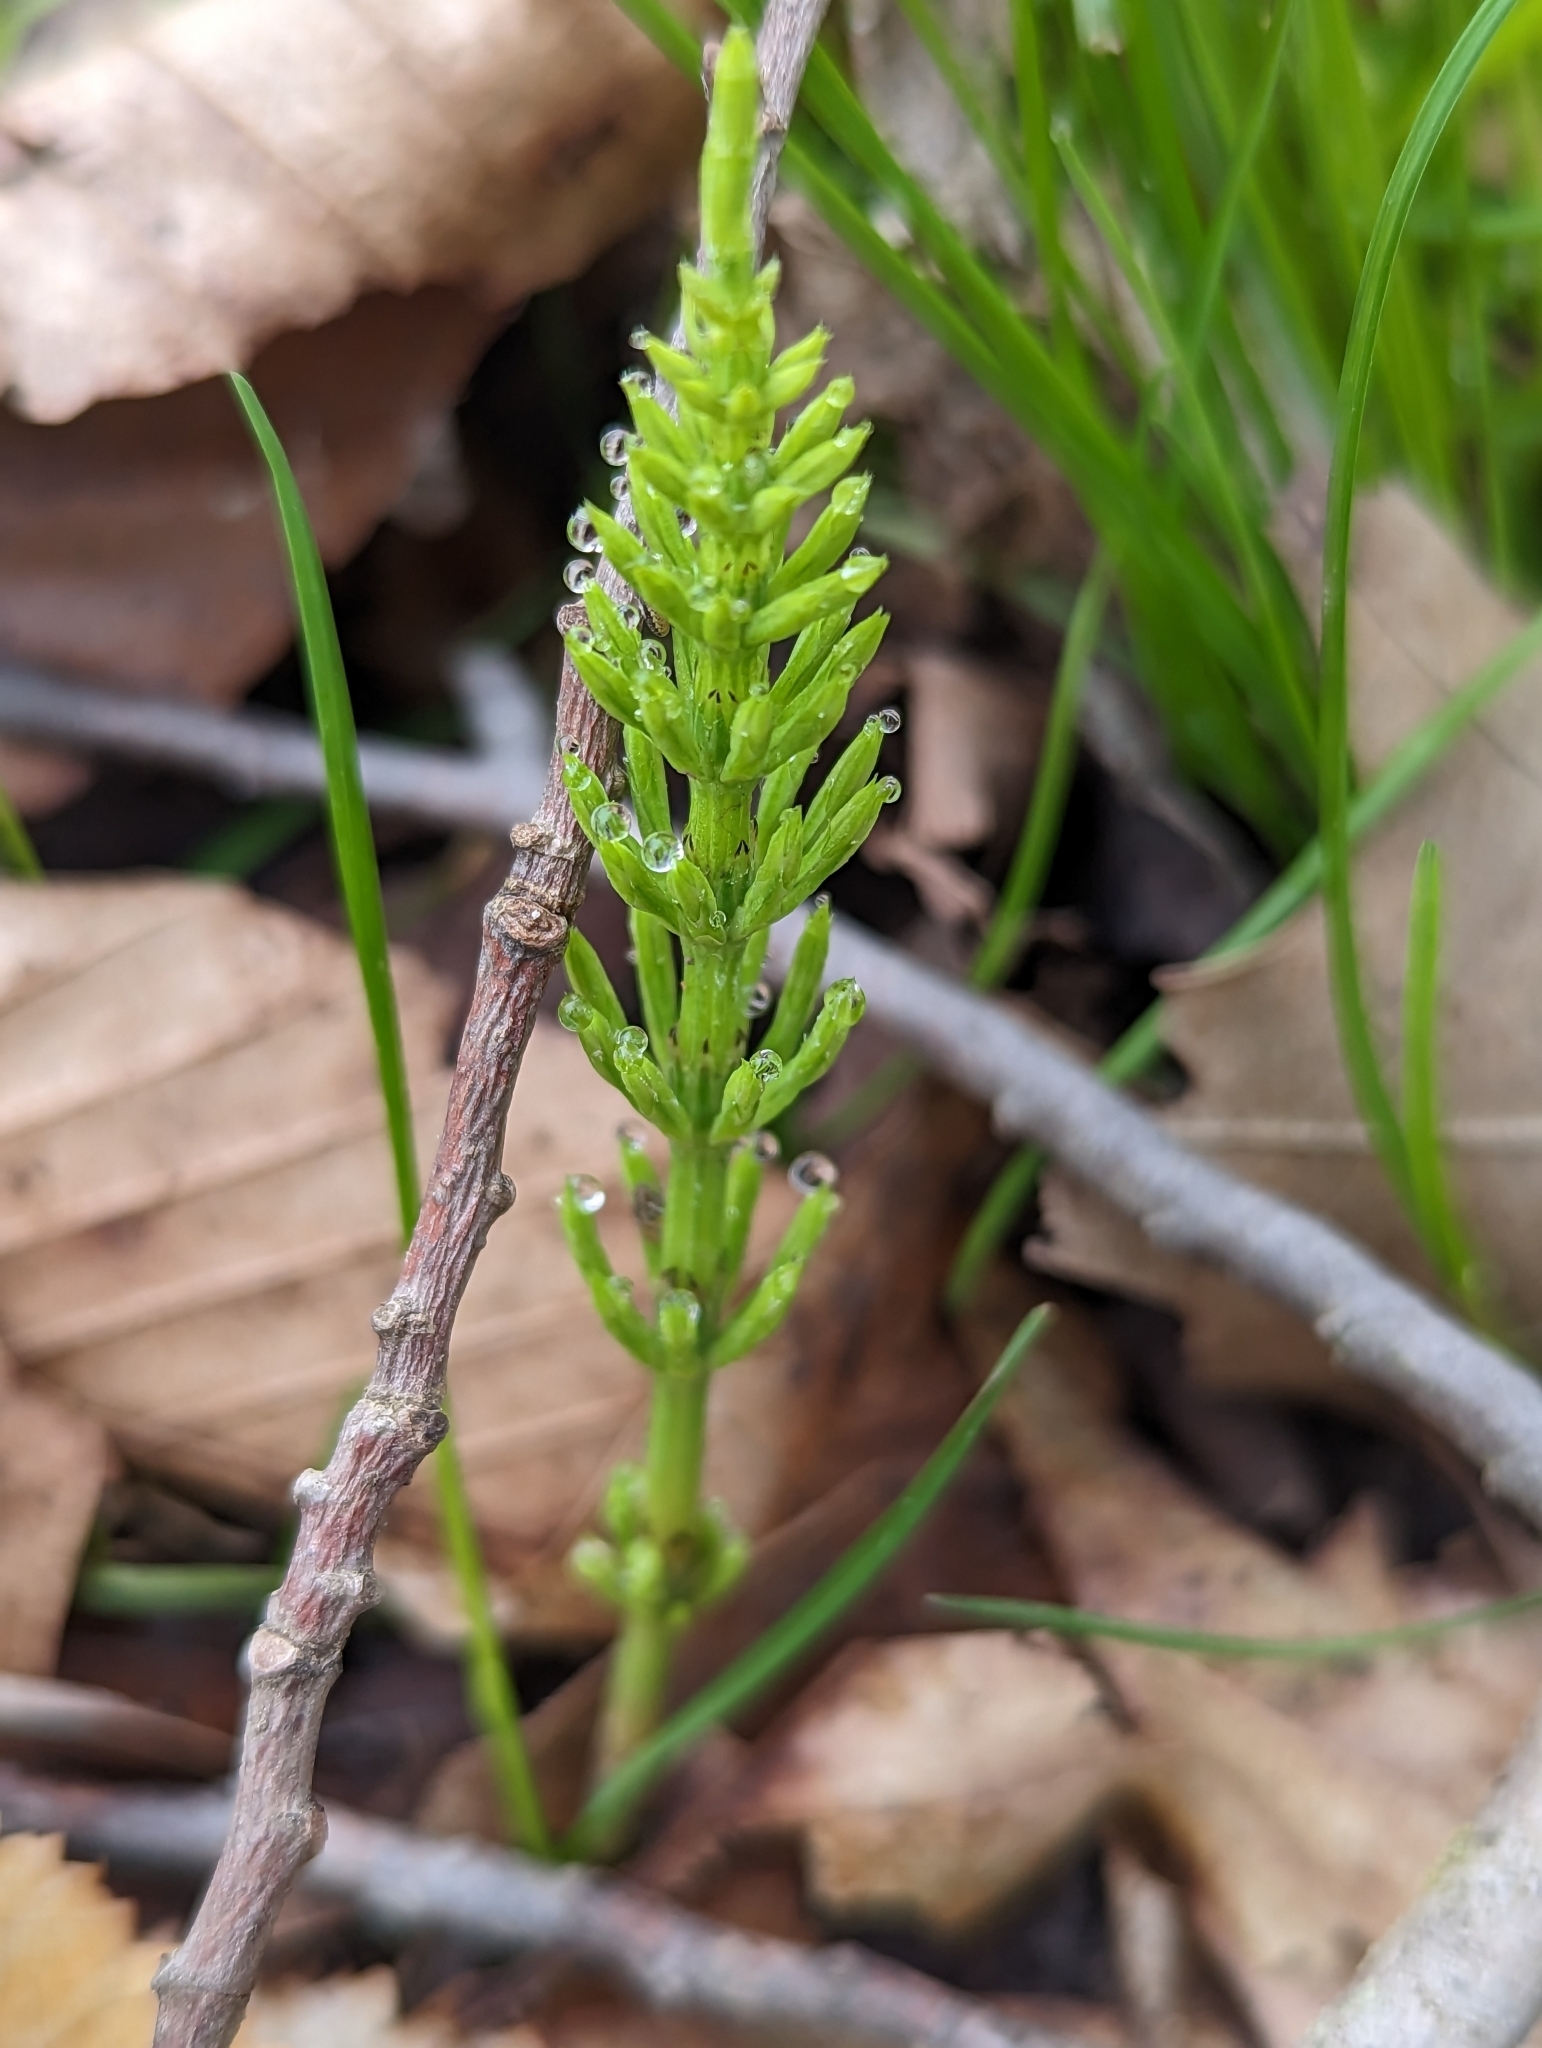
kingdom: Plantae
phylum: Tracheophyta
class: Polypodiopsida
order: Equisetales
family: Equisetaceae
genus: Equisetum
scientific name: Equisetum arvense
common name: Field horsetail
